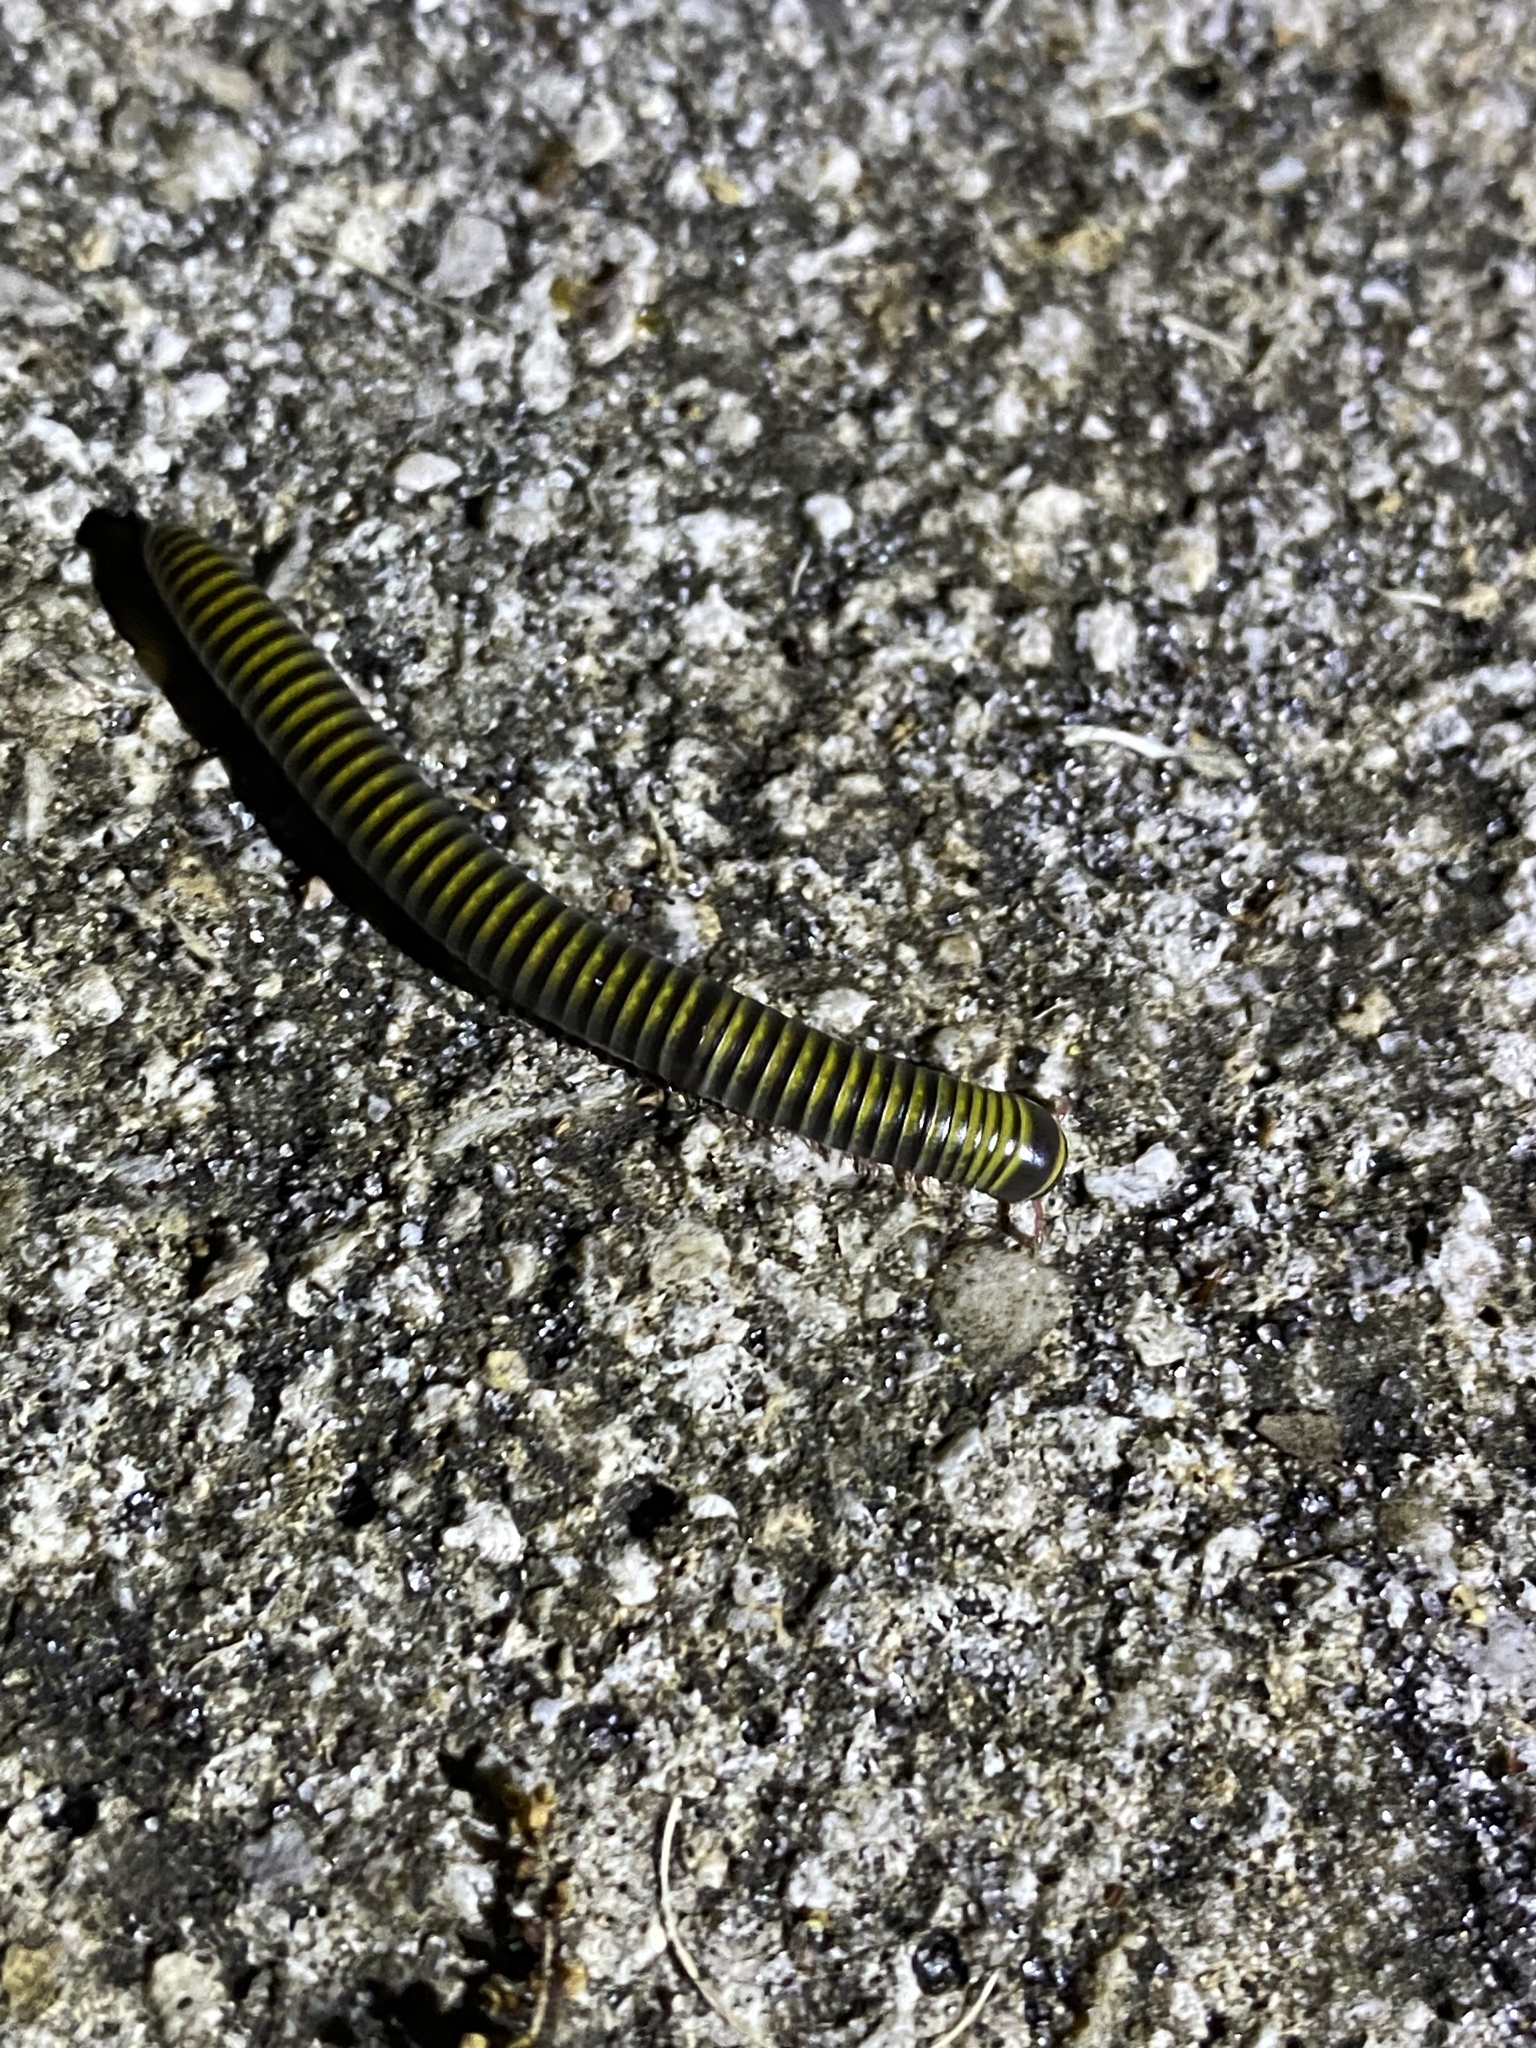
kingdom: Animalia
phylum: Arthropoda
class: Diplopoda
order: Spirobolida
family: Rhinocricidae
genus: Anadenobolus
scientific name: Anadenobolus monilicornis
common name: Caribbean millipede
